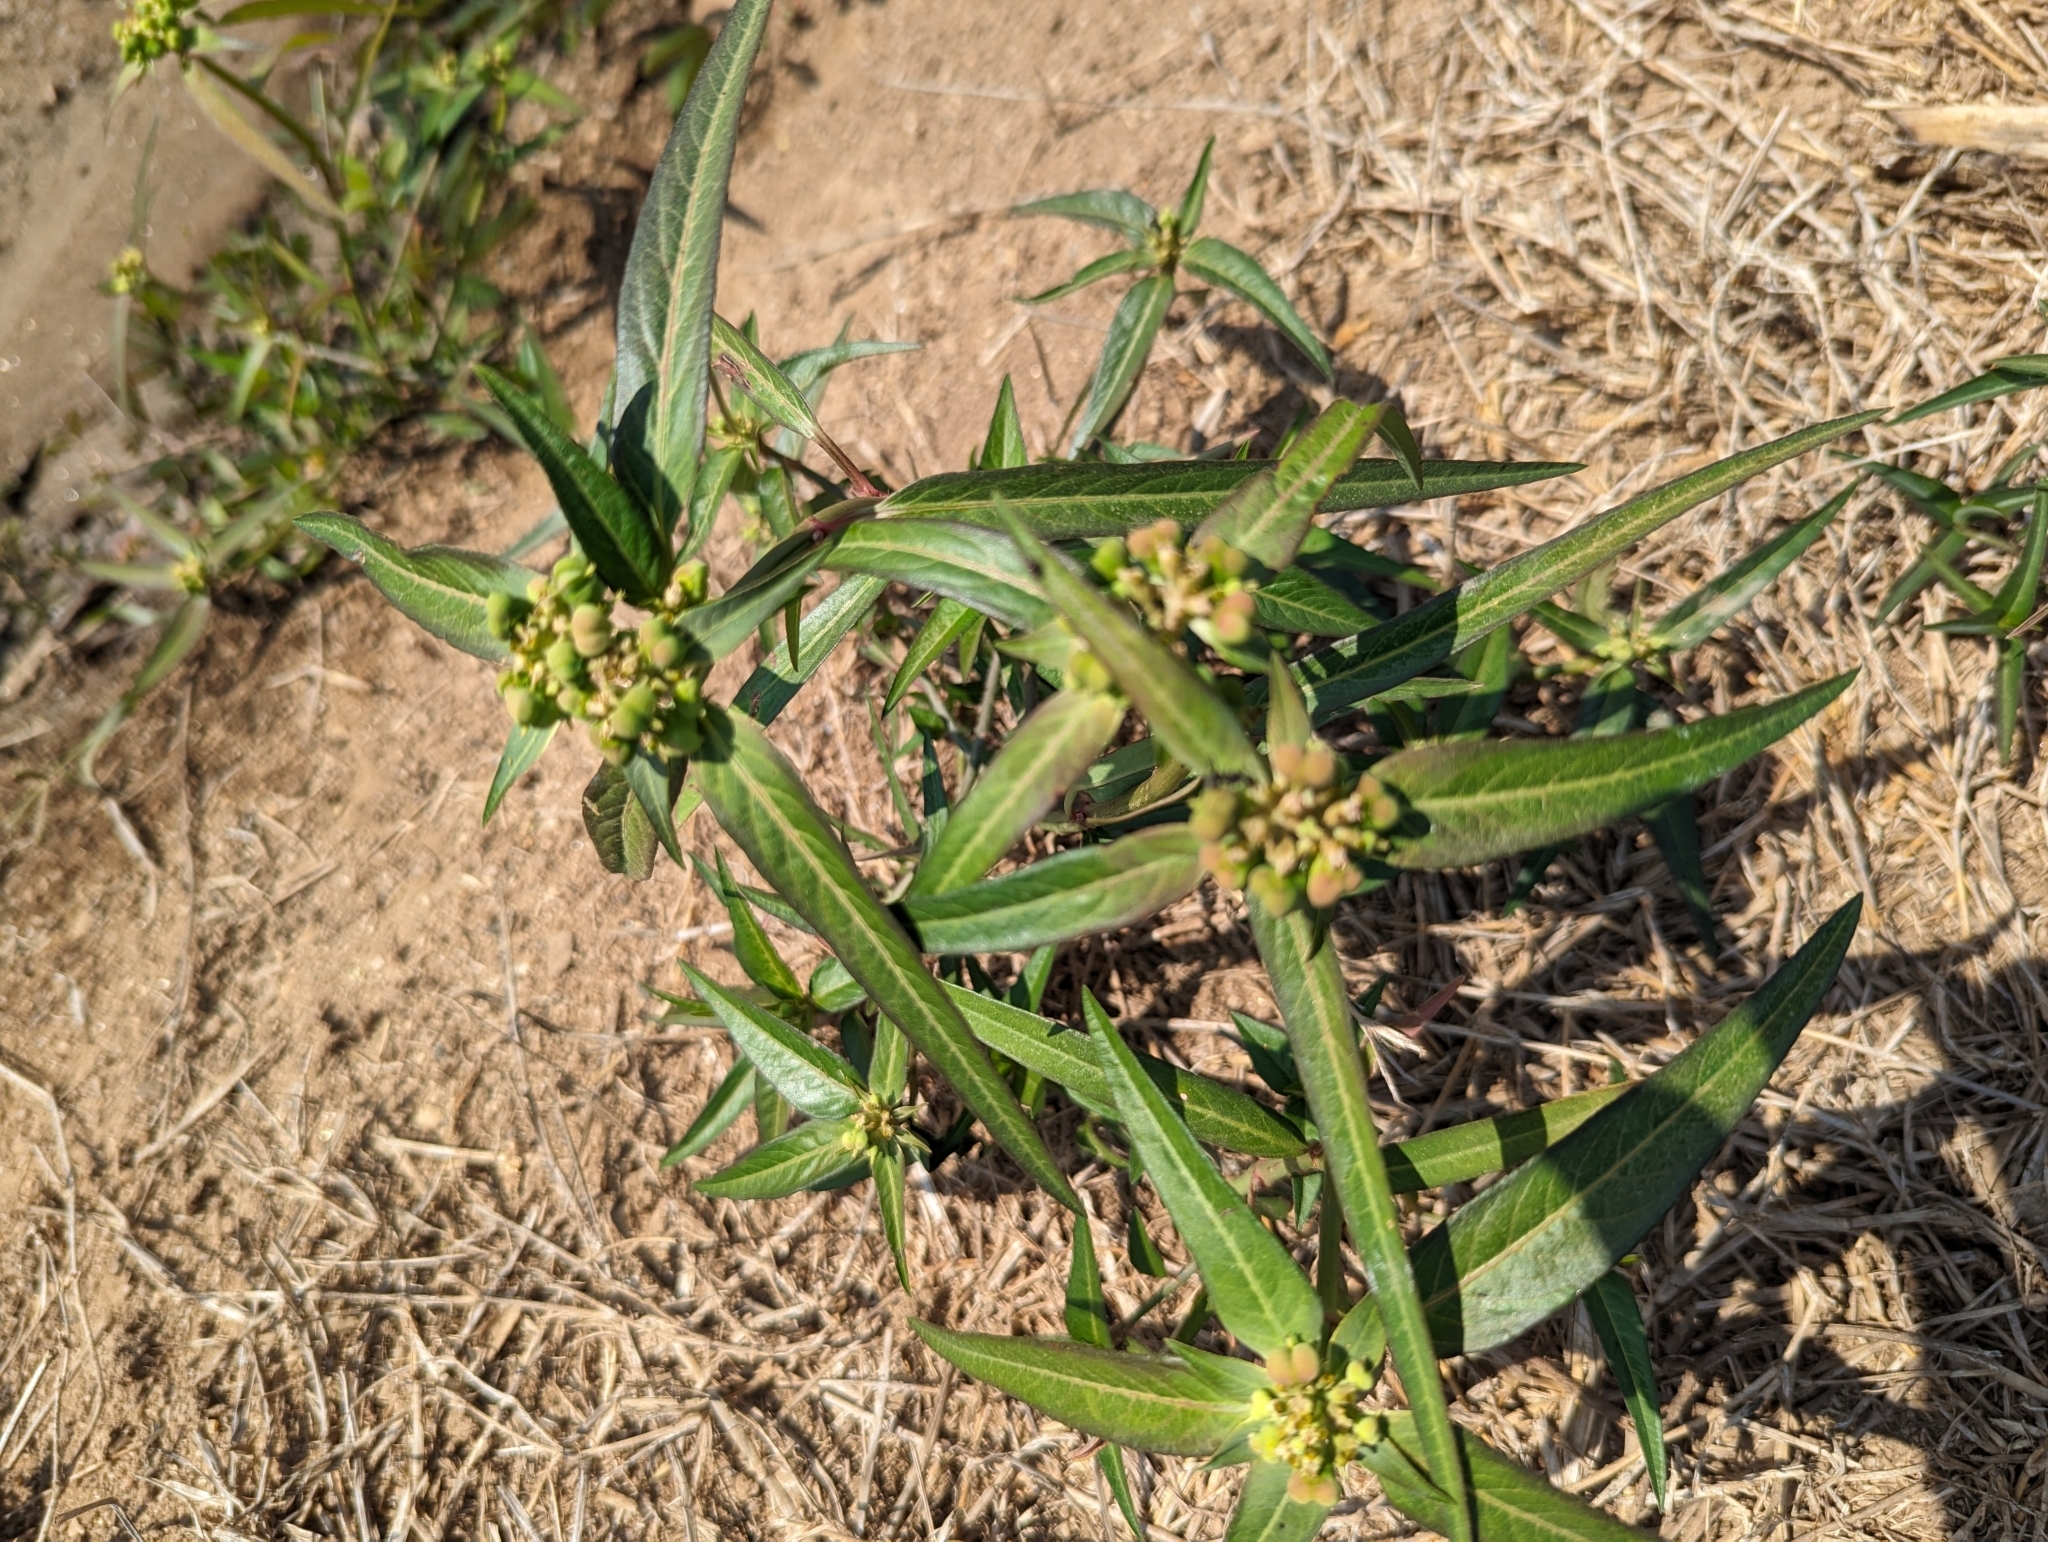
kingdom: Plantae
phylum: Tracheophyta
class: Magnoliopsida
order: Malpighiales
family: Euphorbiaceae
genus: Euphorbia
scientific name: Euphorbia heterophylla
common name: Mexican fireplant
